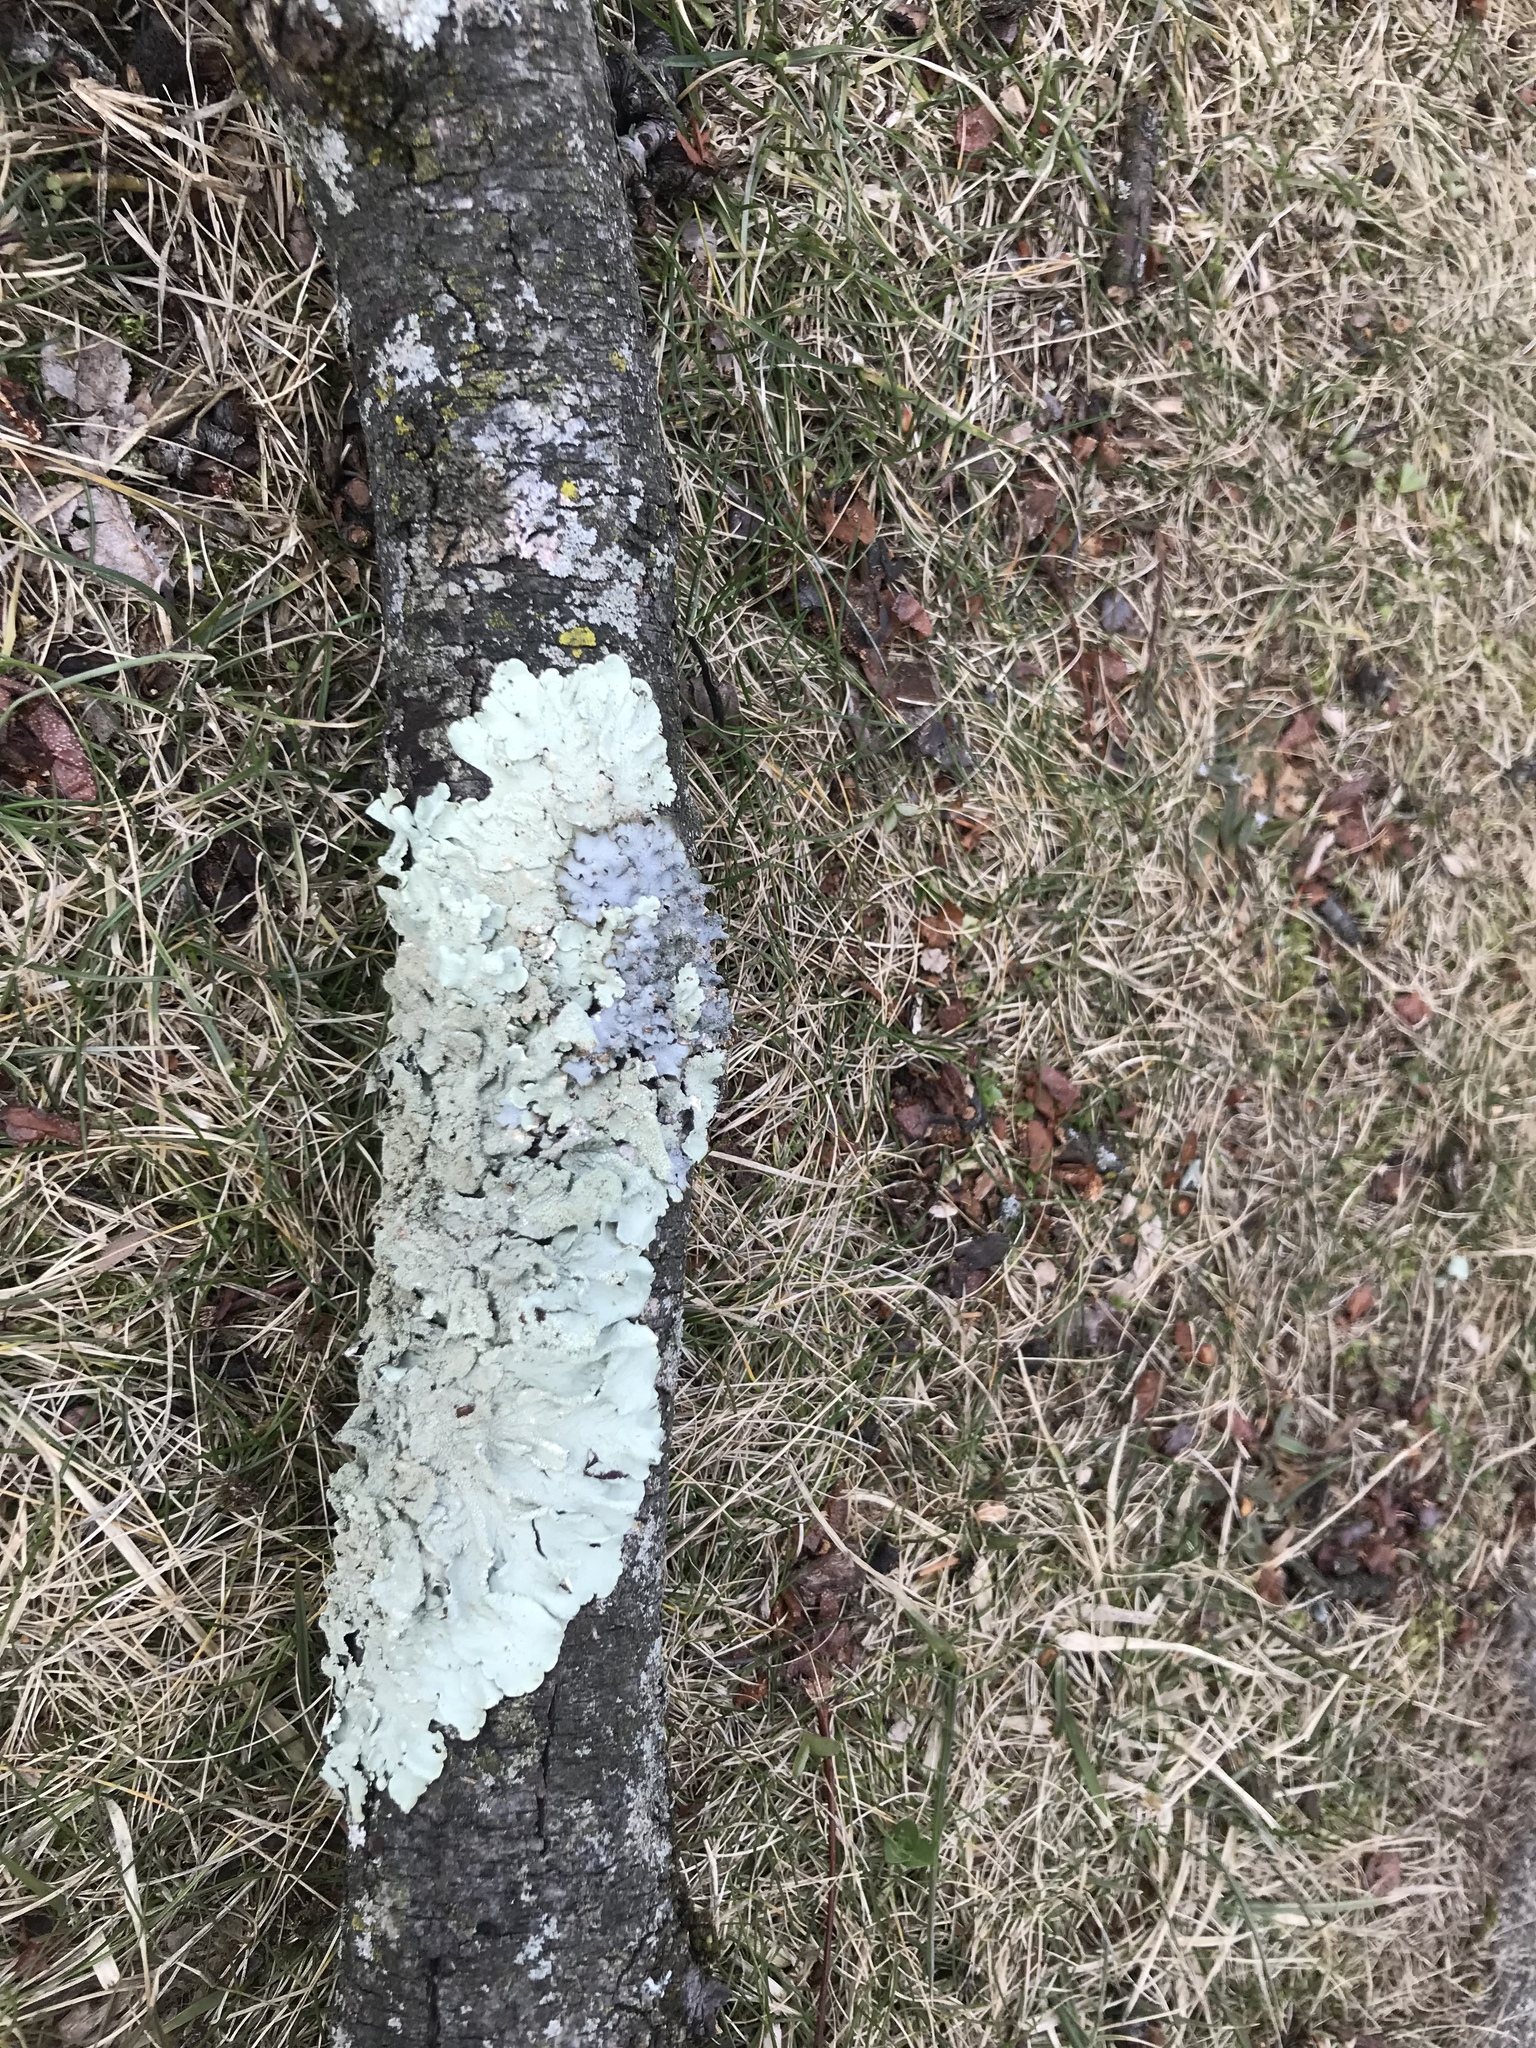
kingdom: Fungi
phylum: Ascomycota
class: Lecanoromycetes
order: Lecanorales
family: Parmeliaceae
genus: Flavoparmelia
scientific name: Flavoparmelia caperata
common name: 40-mile per hour lichen
